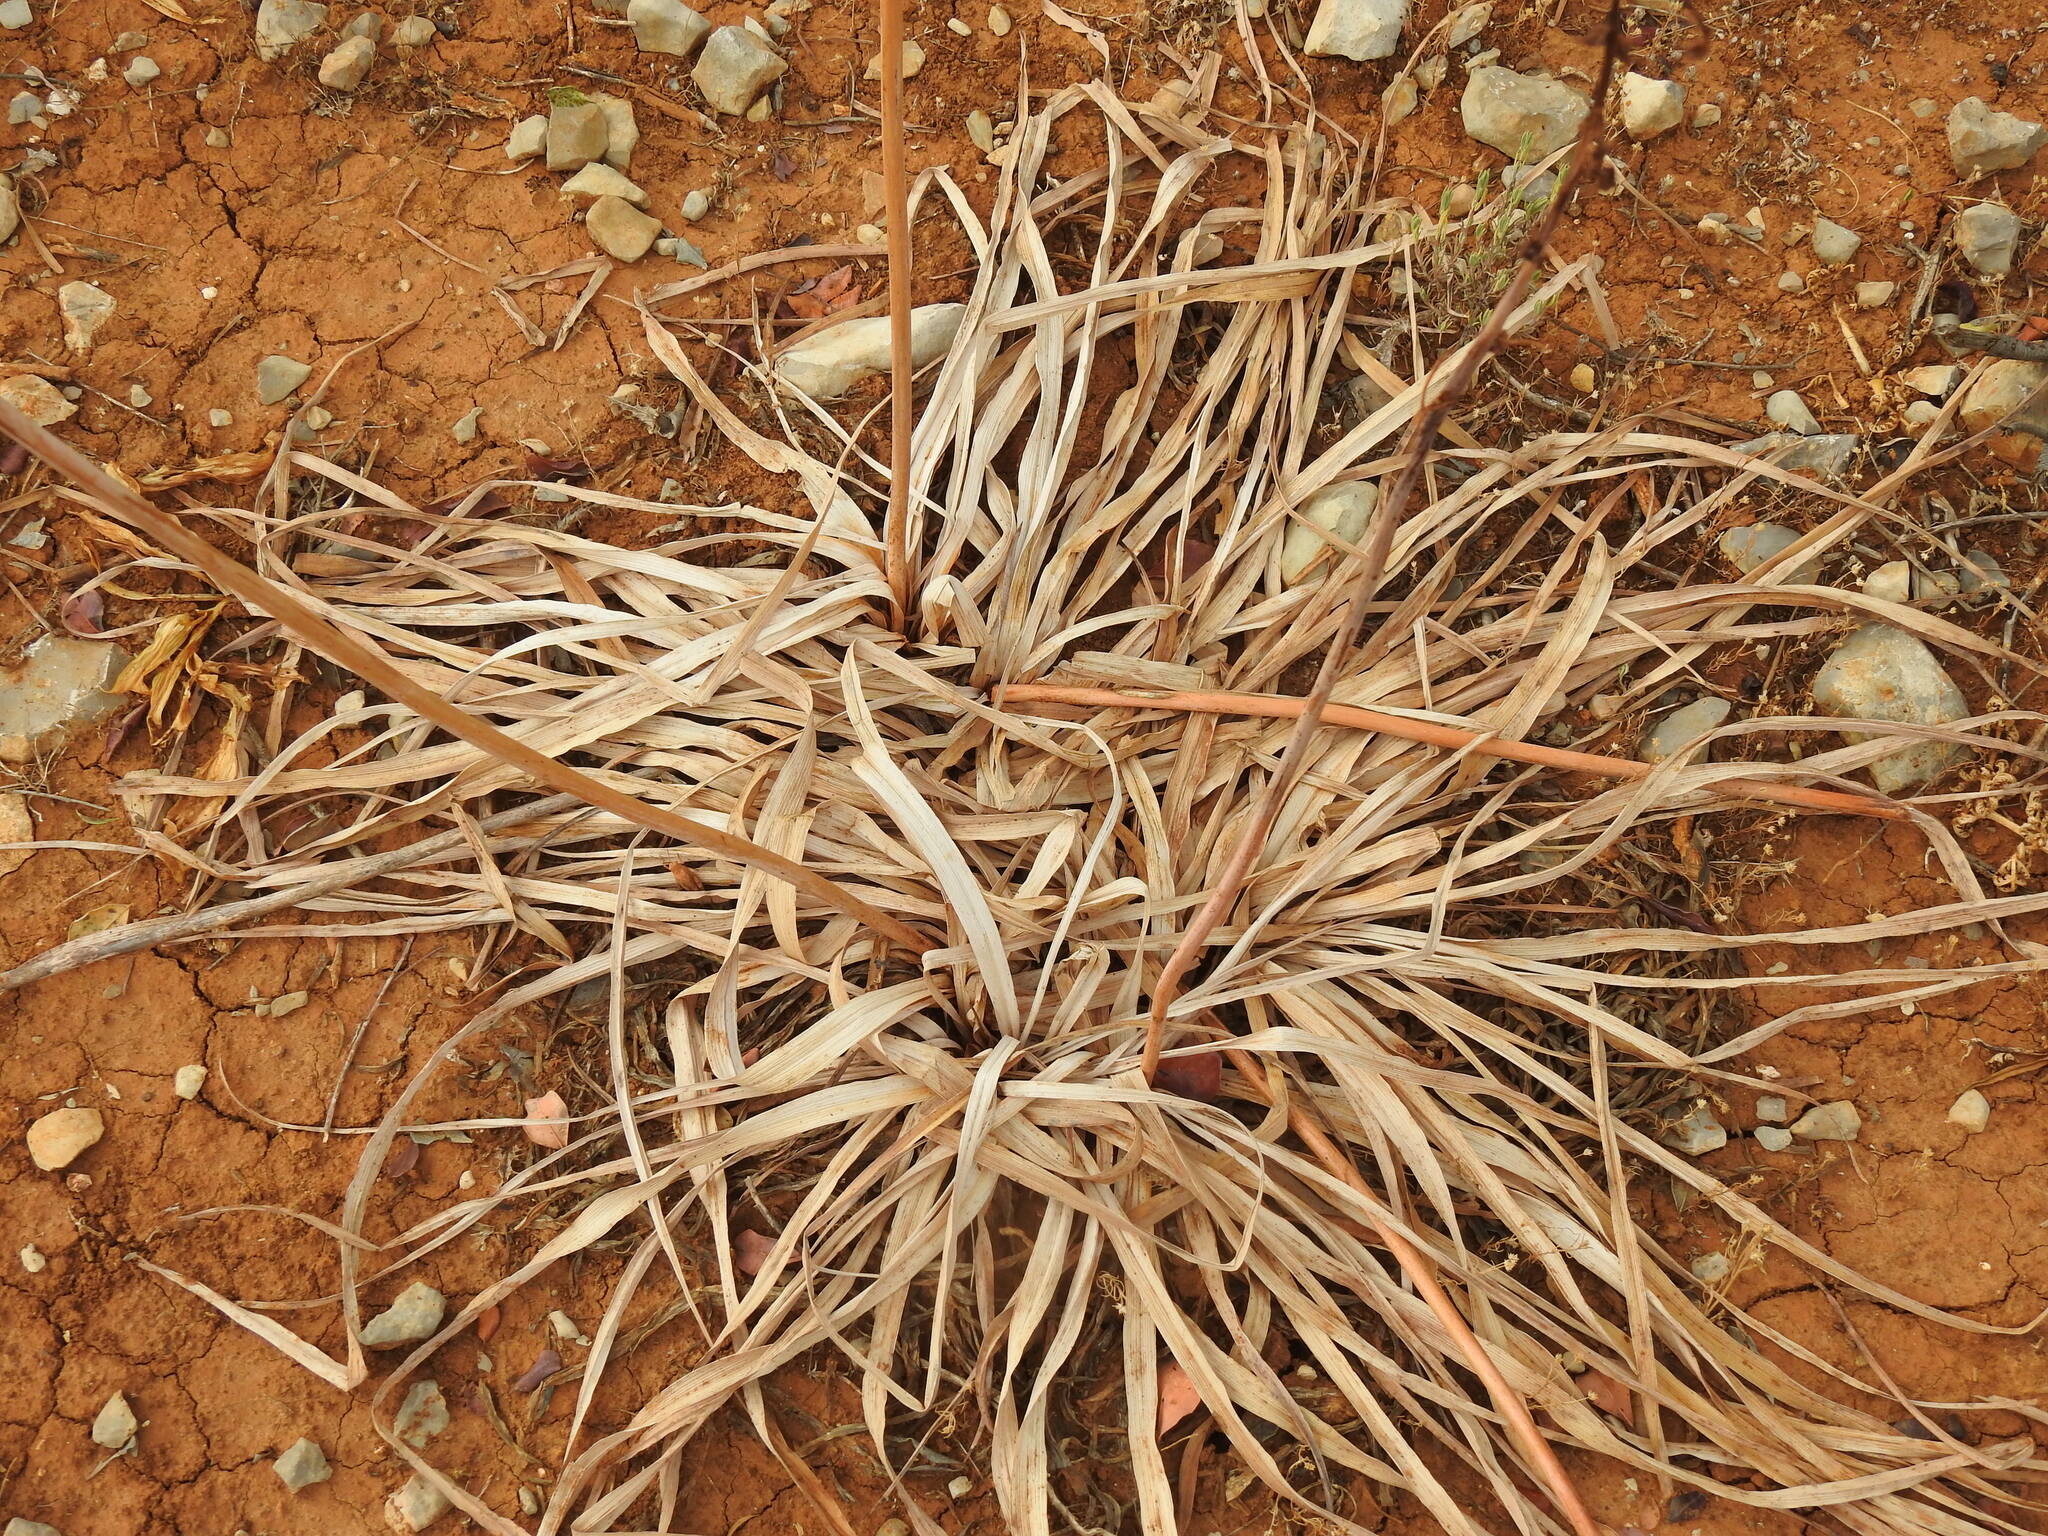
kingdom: Plantae
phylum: Tracheophyta
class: Liliopsida
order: Asparagales
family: Asphodelaceae
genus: Asphodelus
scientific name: Asphodelus serotinus
